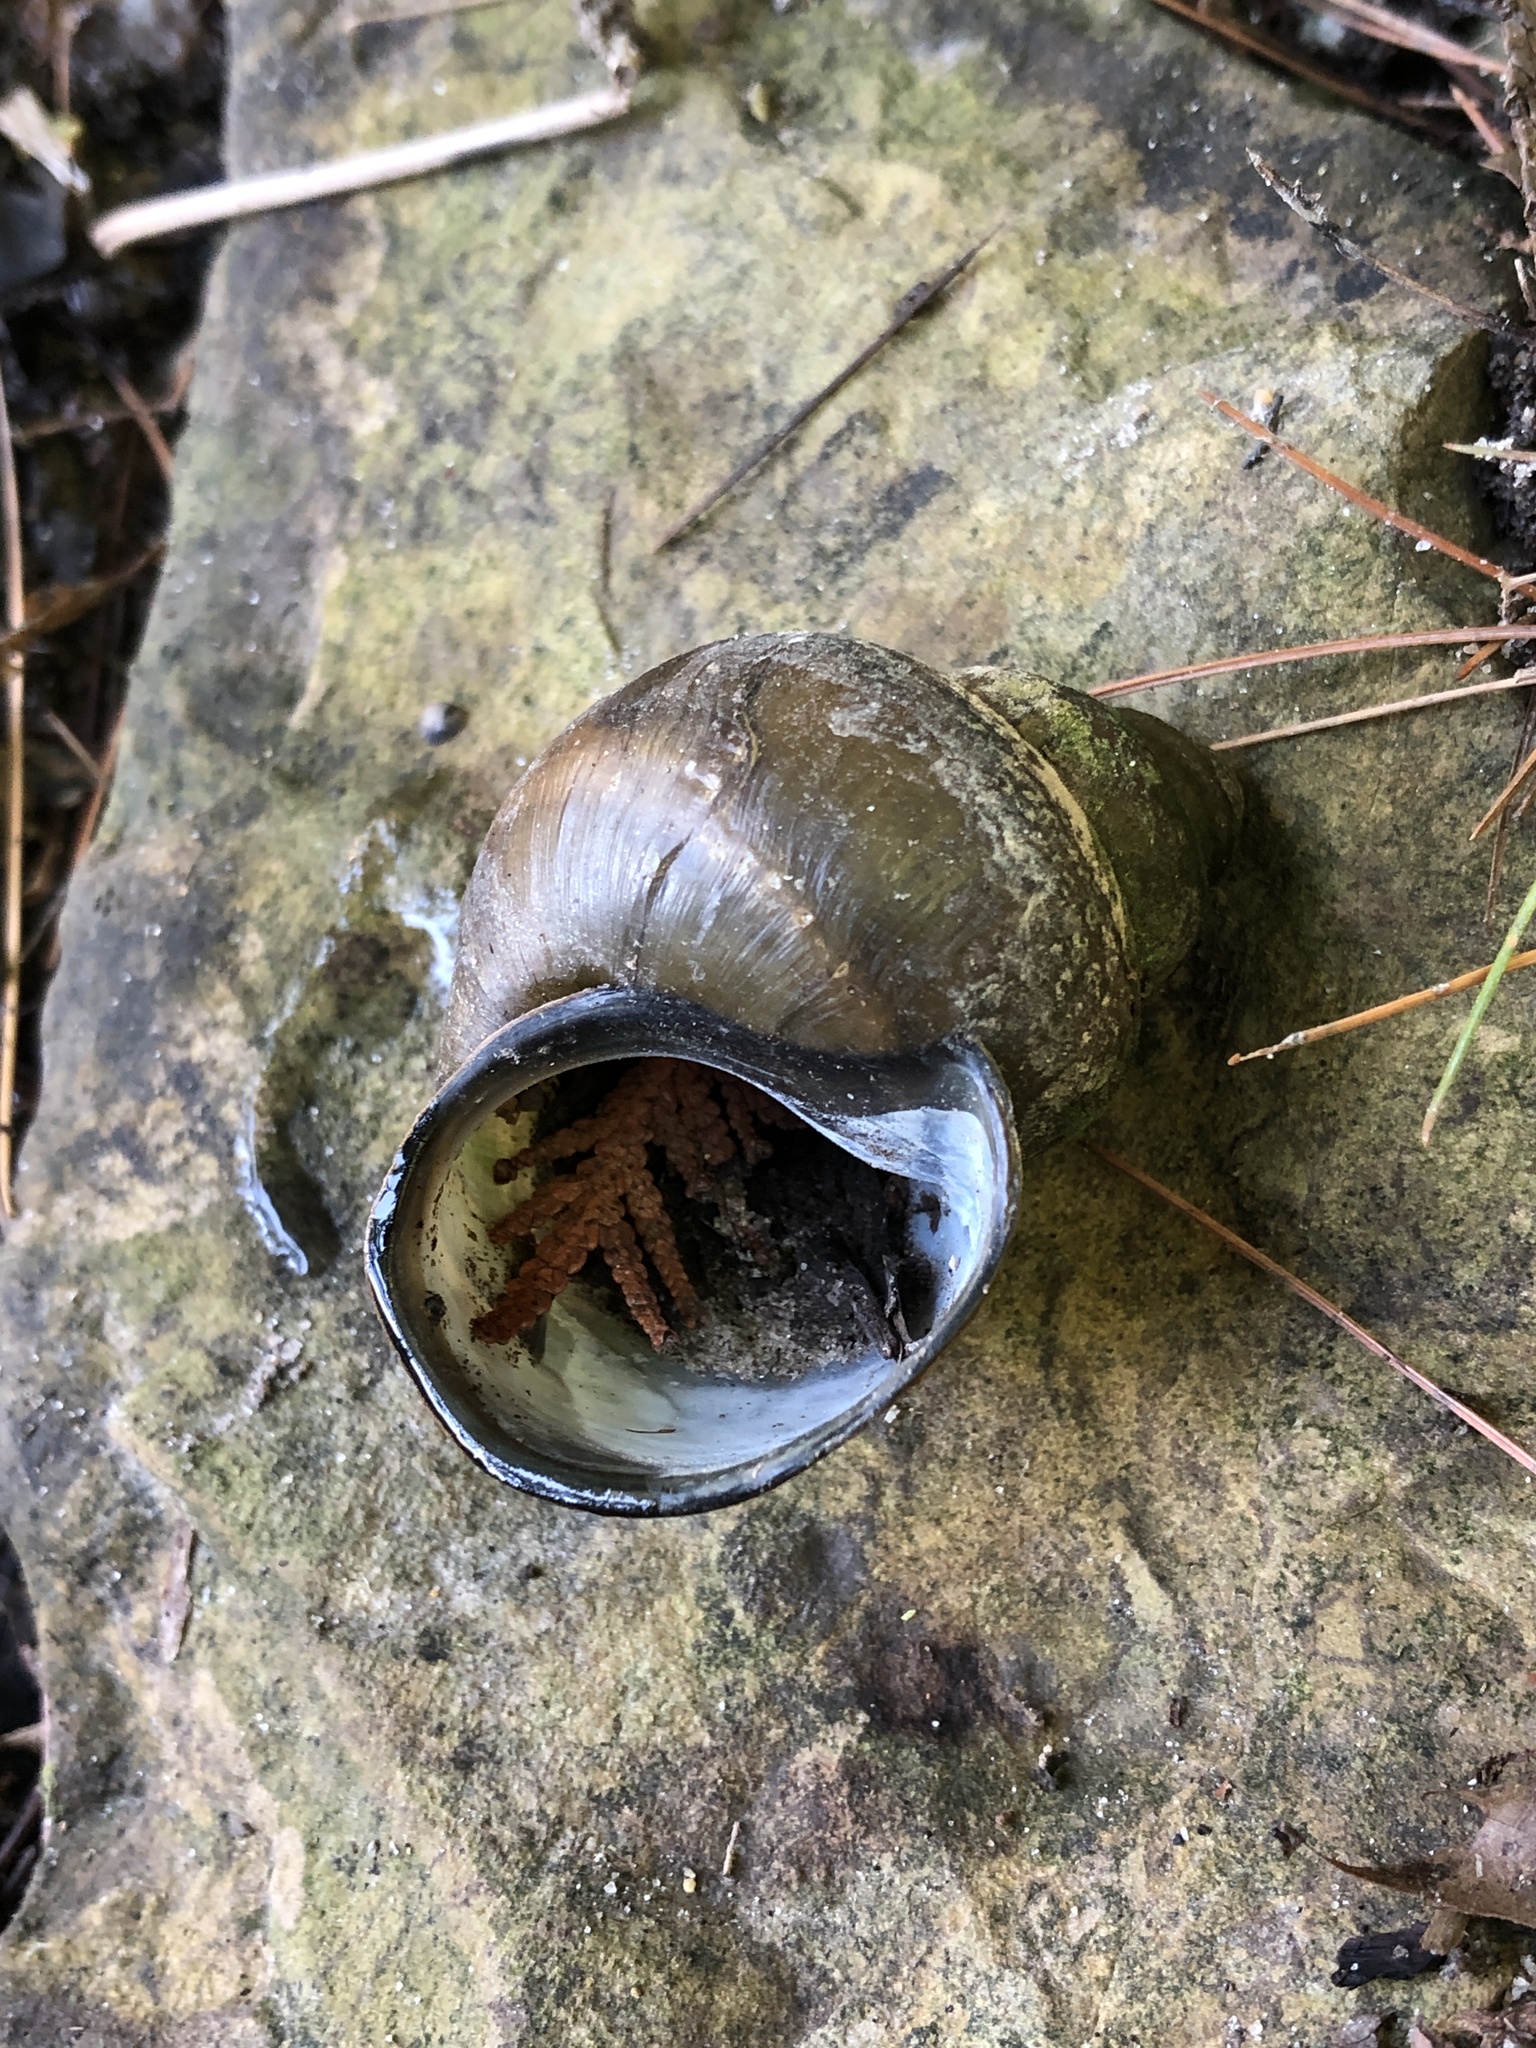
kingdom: Animalia
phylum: Mollusca
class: Gastropoda
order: Architaenioglossa
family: Viviparidae
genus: Cipangopaludina
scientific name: Cipangopaludina chinensis
